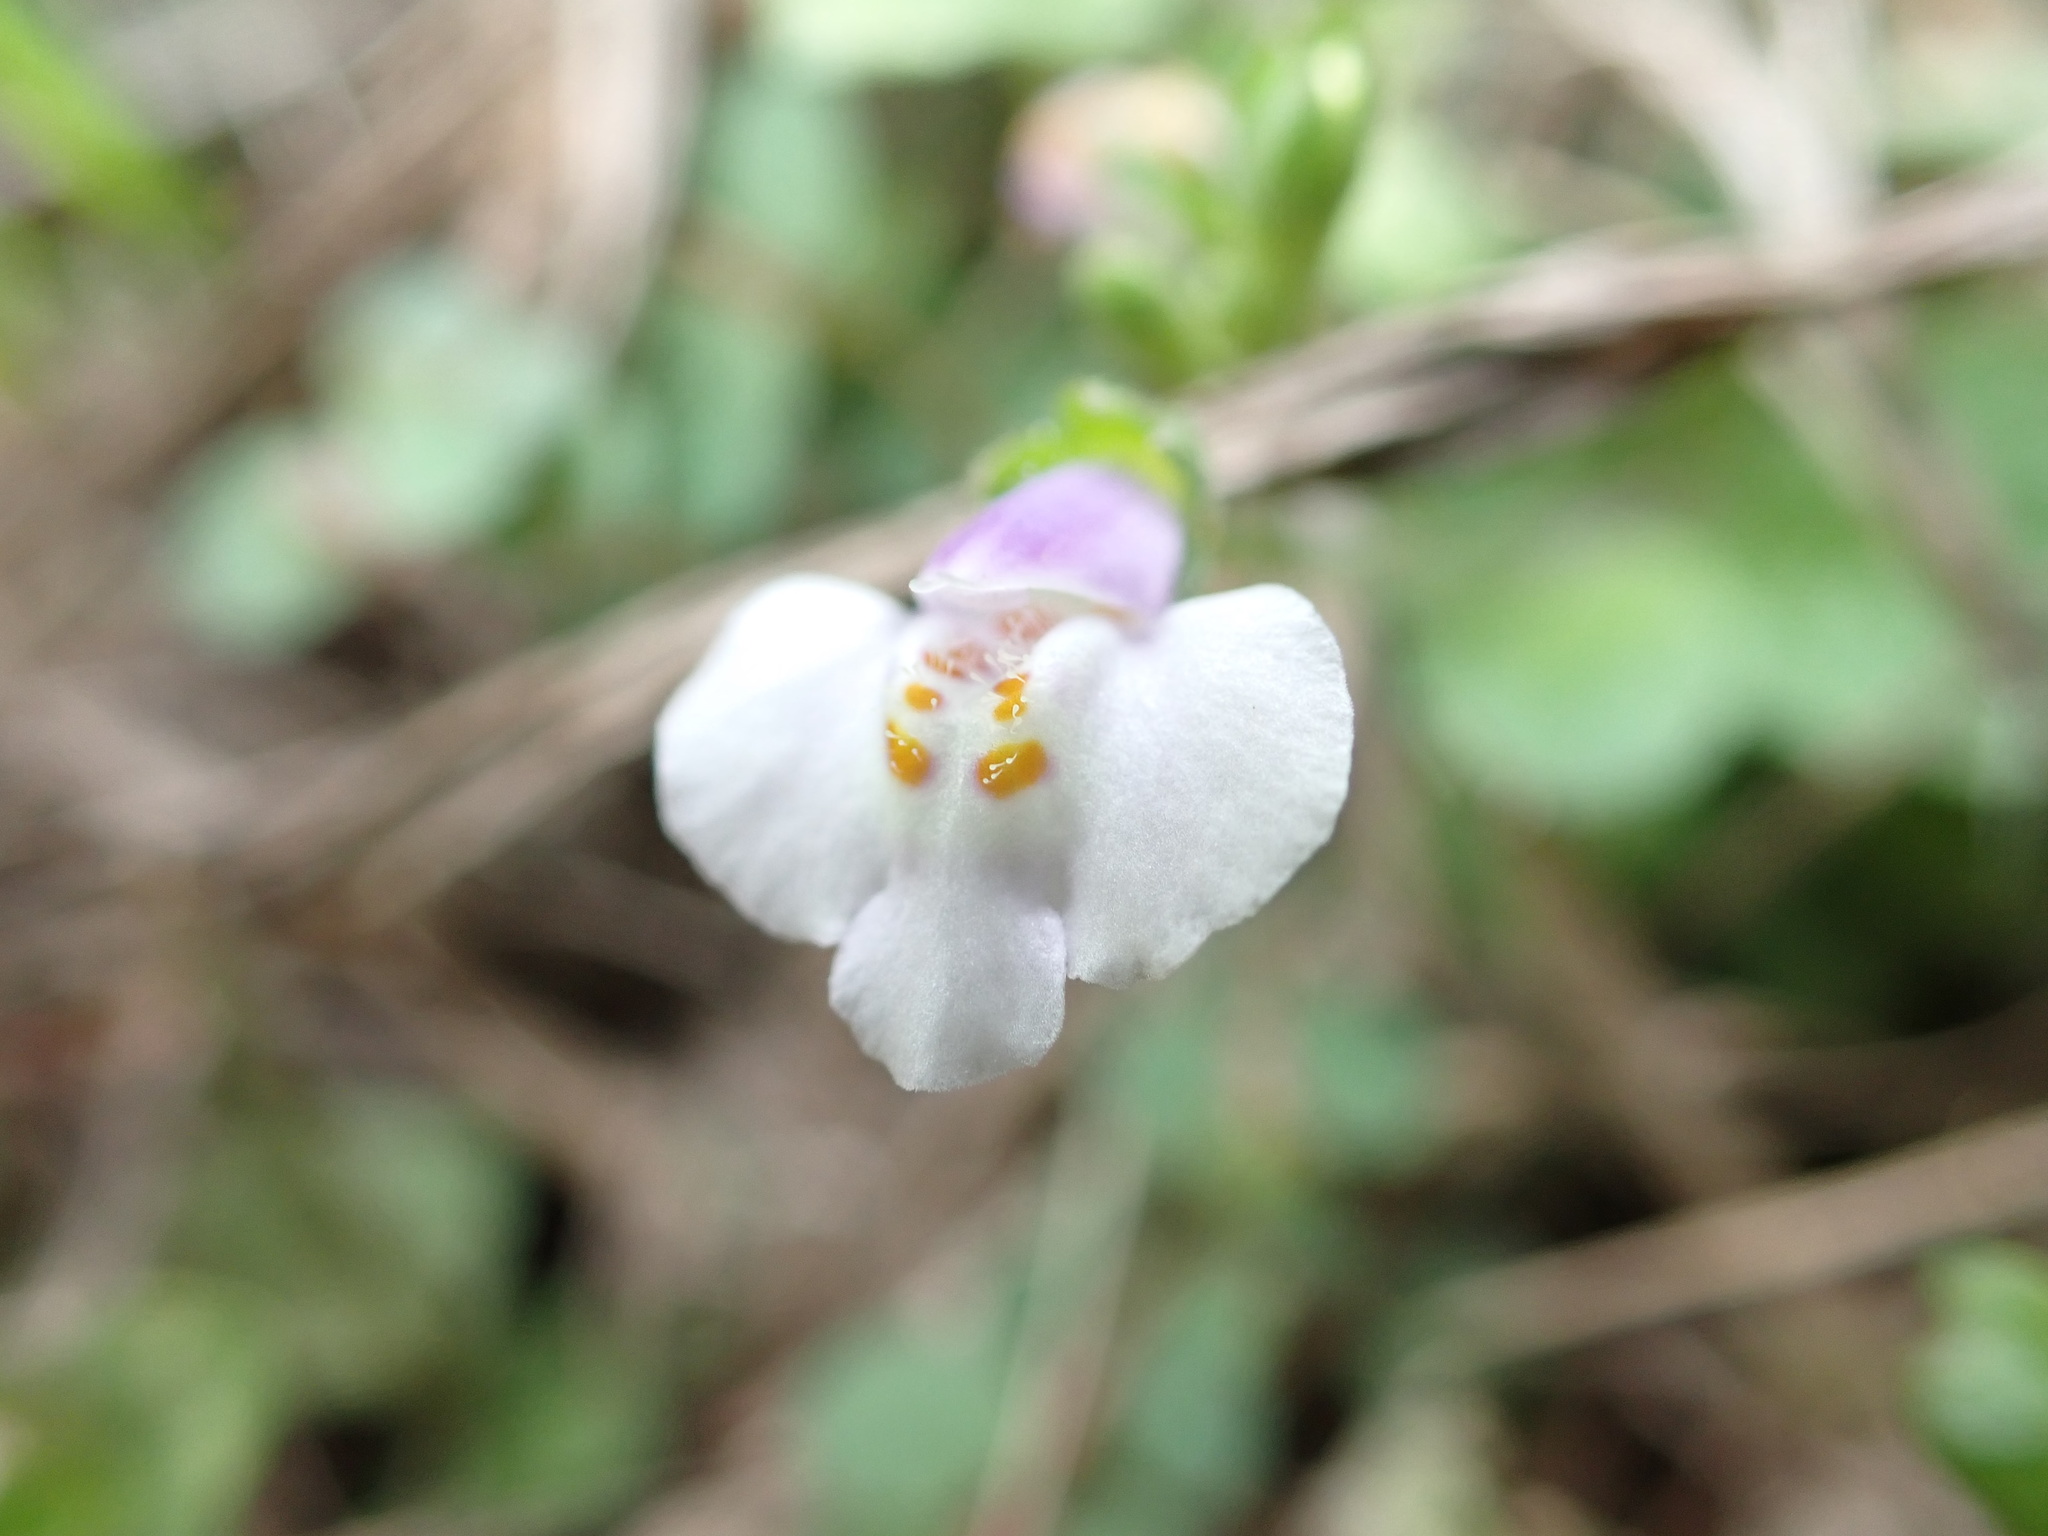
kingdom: Plantae
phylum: Tracheophyta
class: Magnoliopsida
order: Lamiales
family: Mazaceae
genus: Mazus
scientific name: Mazus pumilus
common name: Japanese mazus
